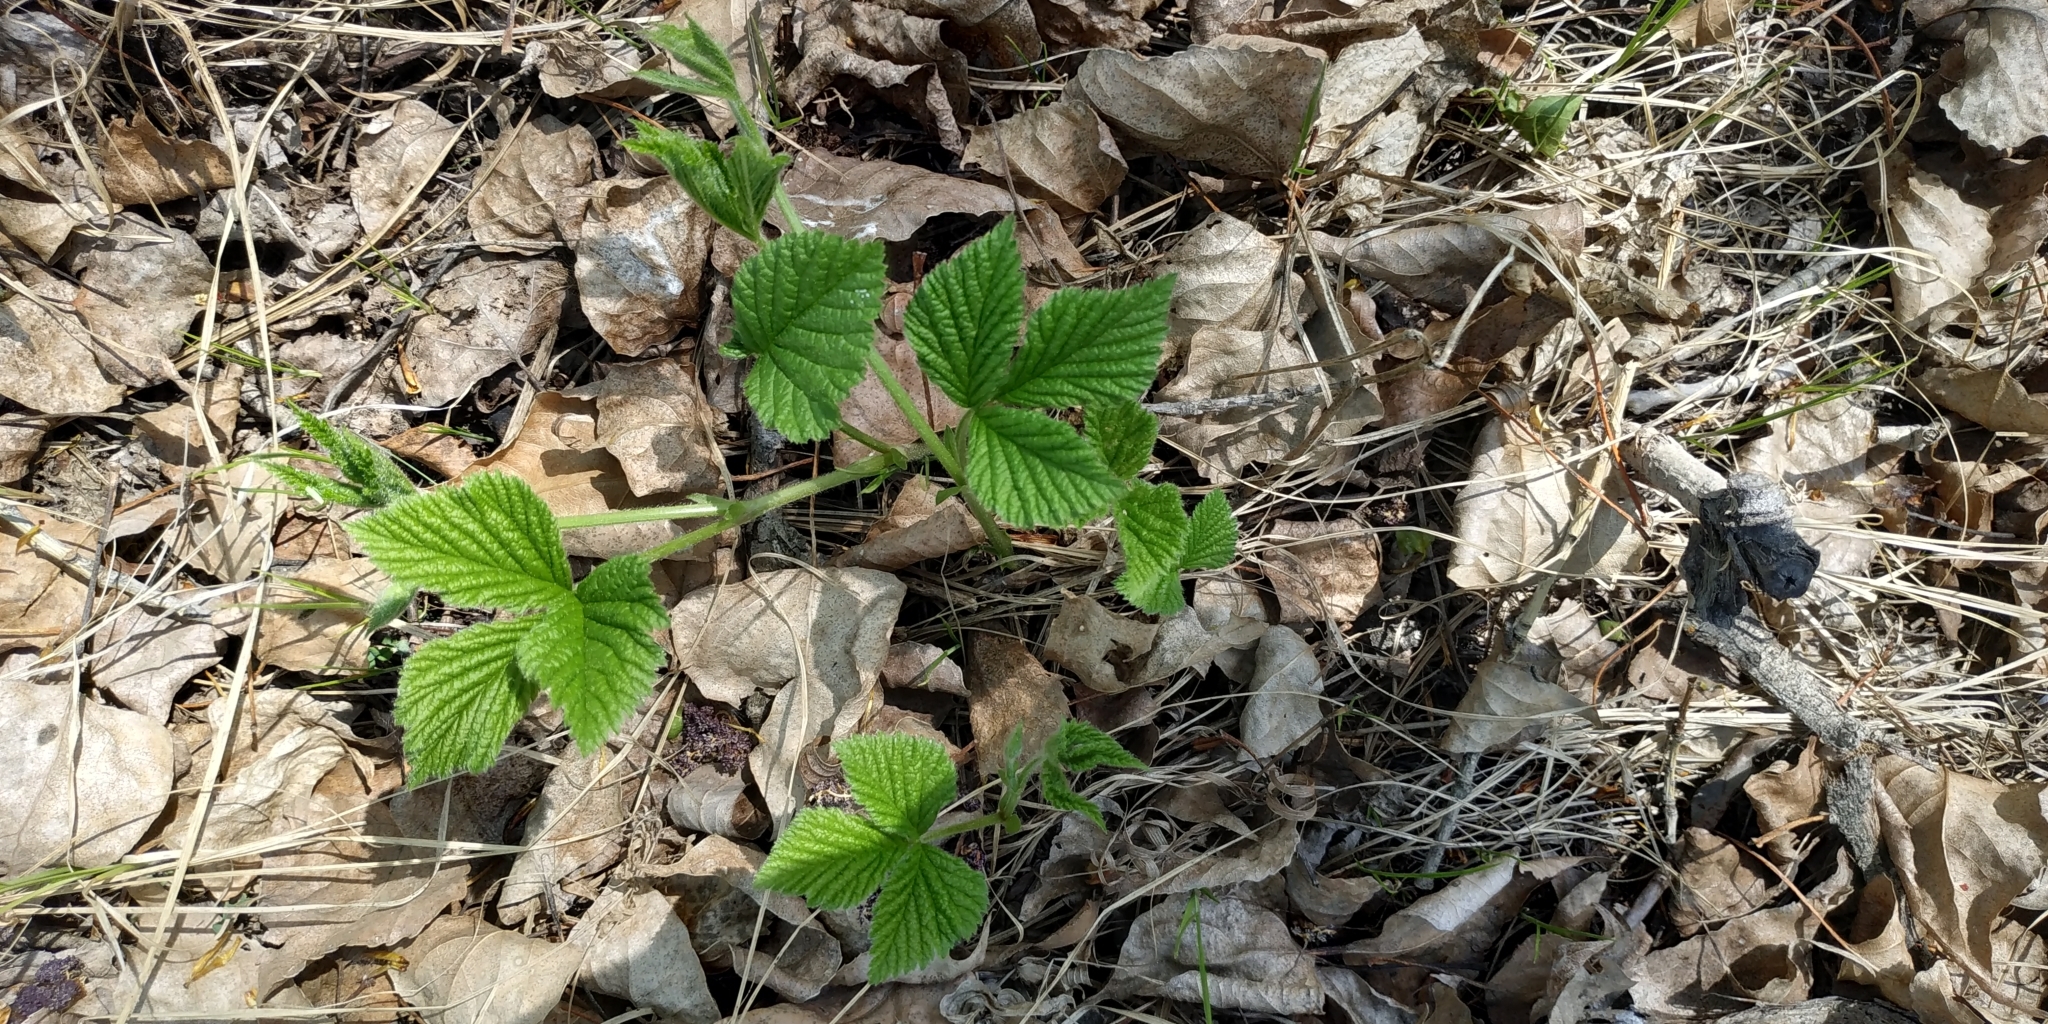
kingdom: Plantae
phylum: Tracheophyta
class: Magnoliopsida
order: Rosales
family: Rosaceae
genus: Rubus
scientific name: Rubus saxatilis
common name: Stone bramble
